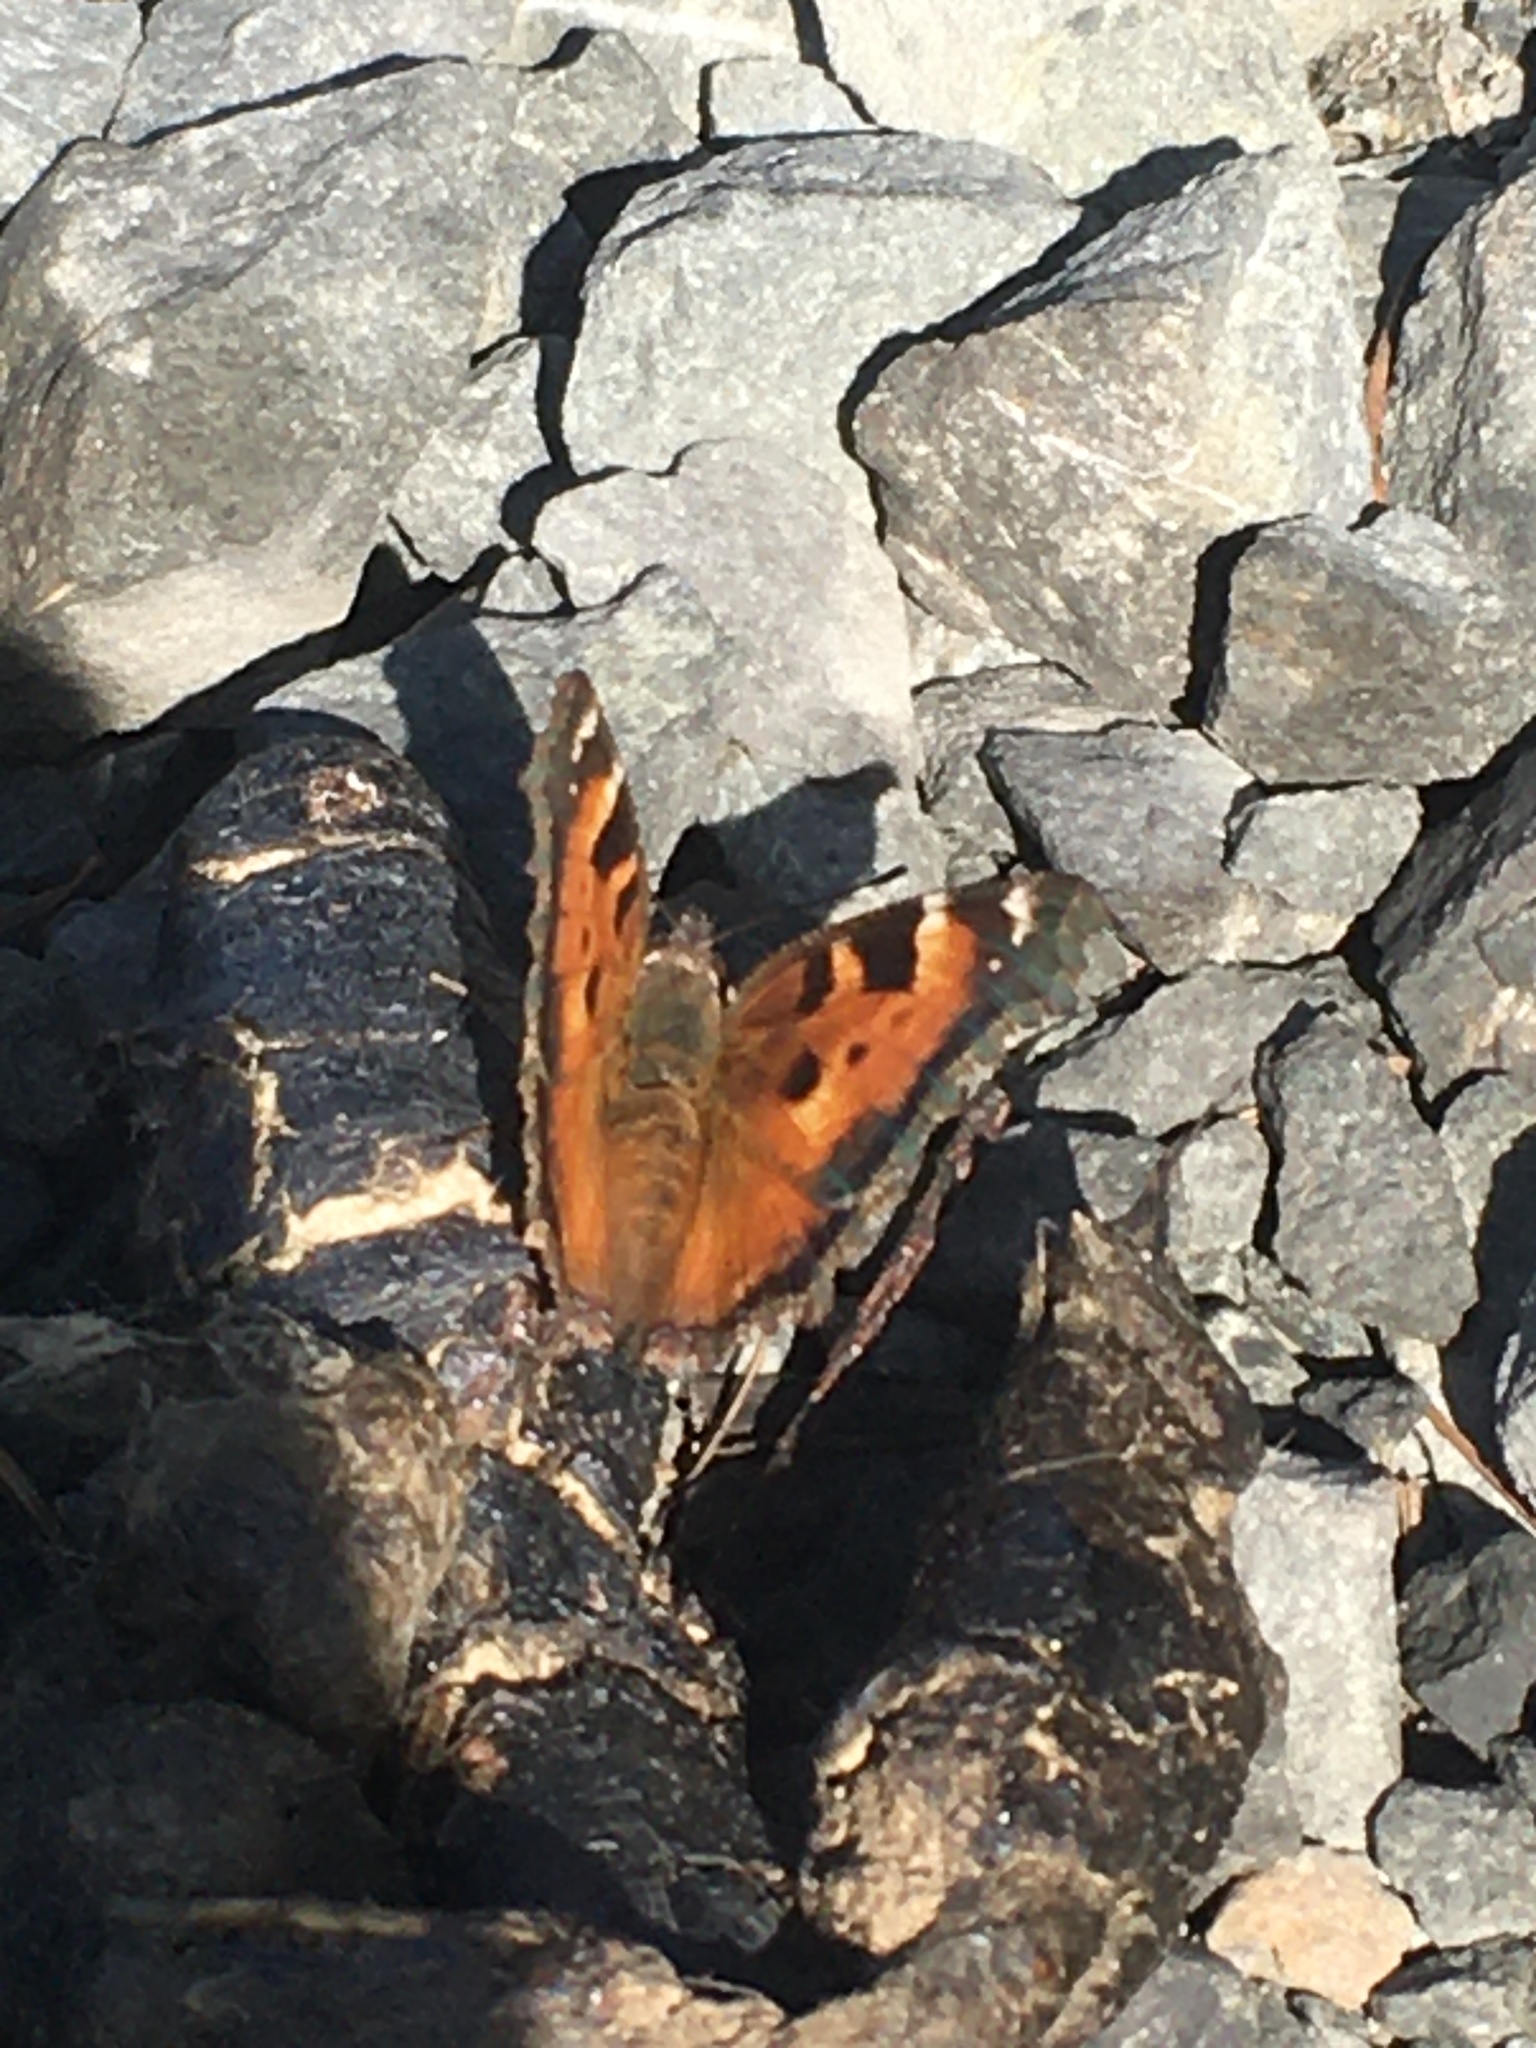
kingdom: Animalia
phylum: Arthropoda
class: Insecta
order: Lepidoptera
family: Nymphalidae
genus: Nymphalis
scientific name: Nymphalis californica
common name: California tortoiseshell
